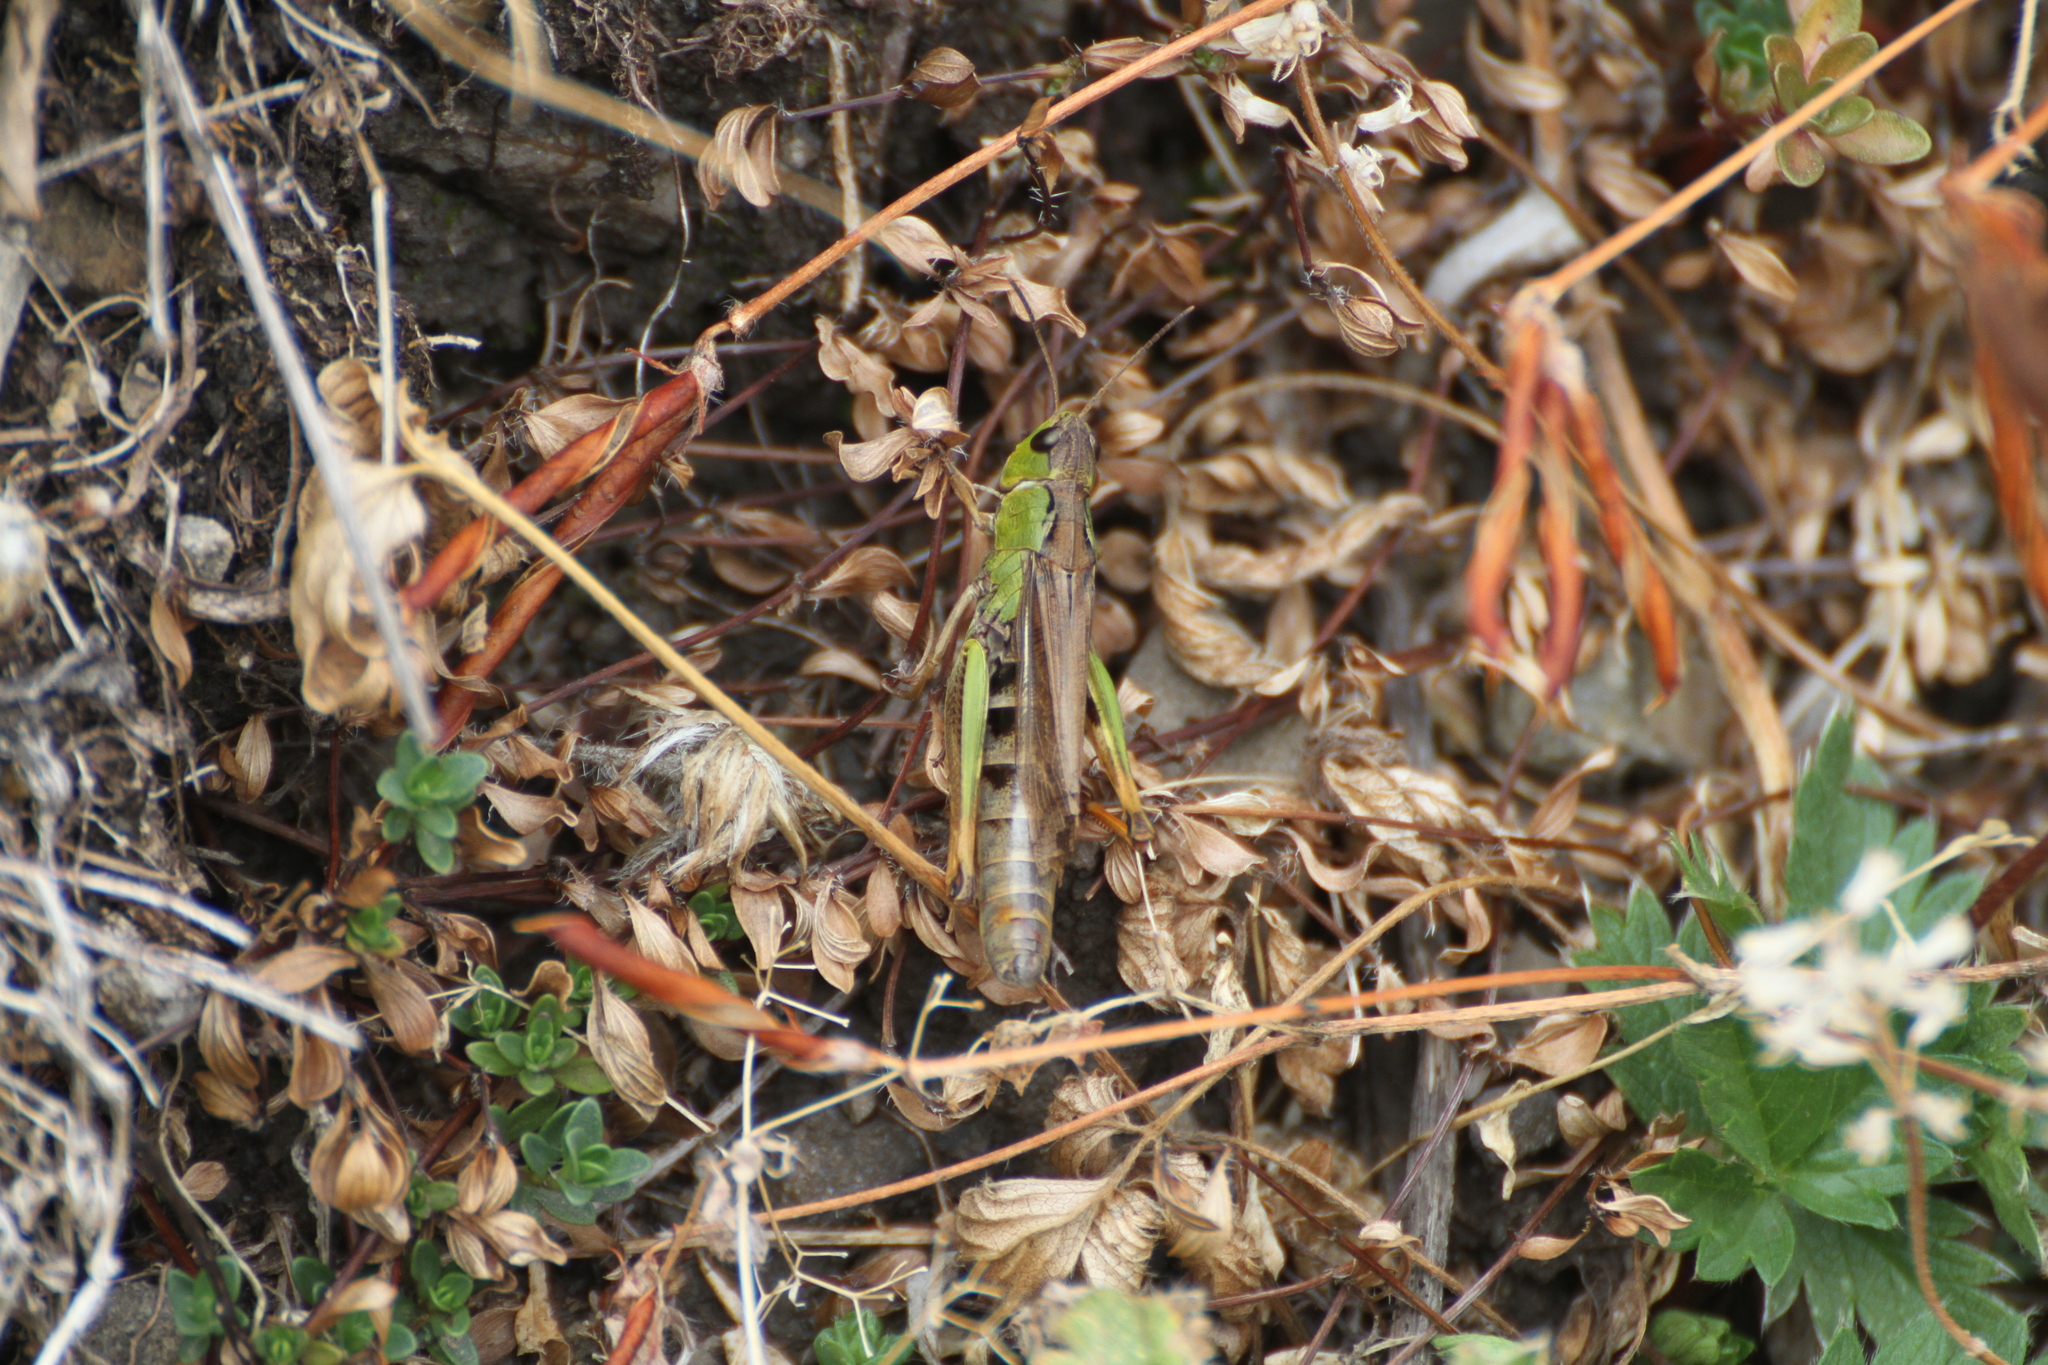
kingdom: Animalia
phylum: Arthropoda
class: Insecta
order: Orthoptera
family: Acrididae
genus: Stauroderus
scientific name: Stauroderus scalaris
